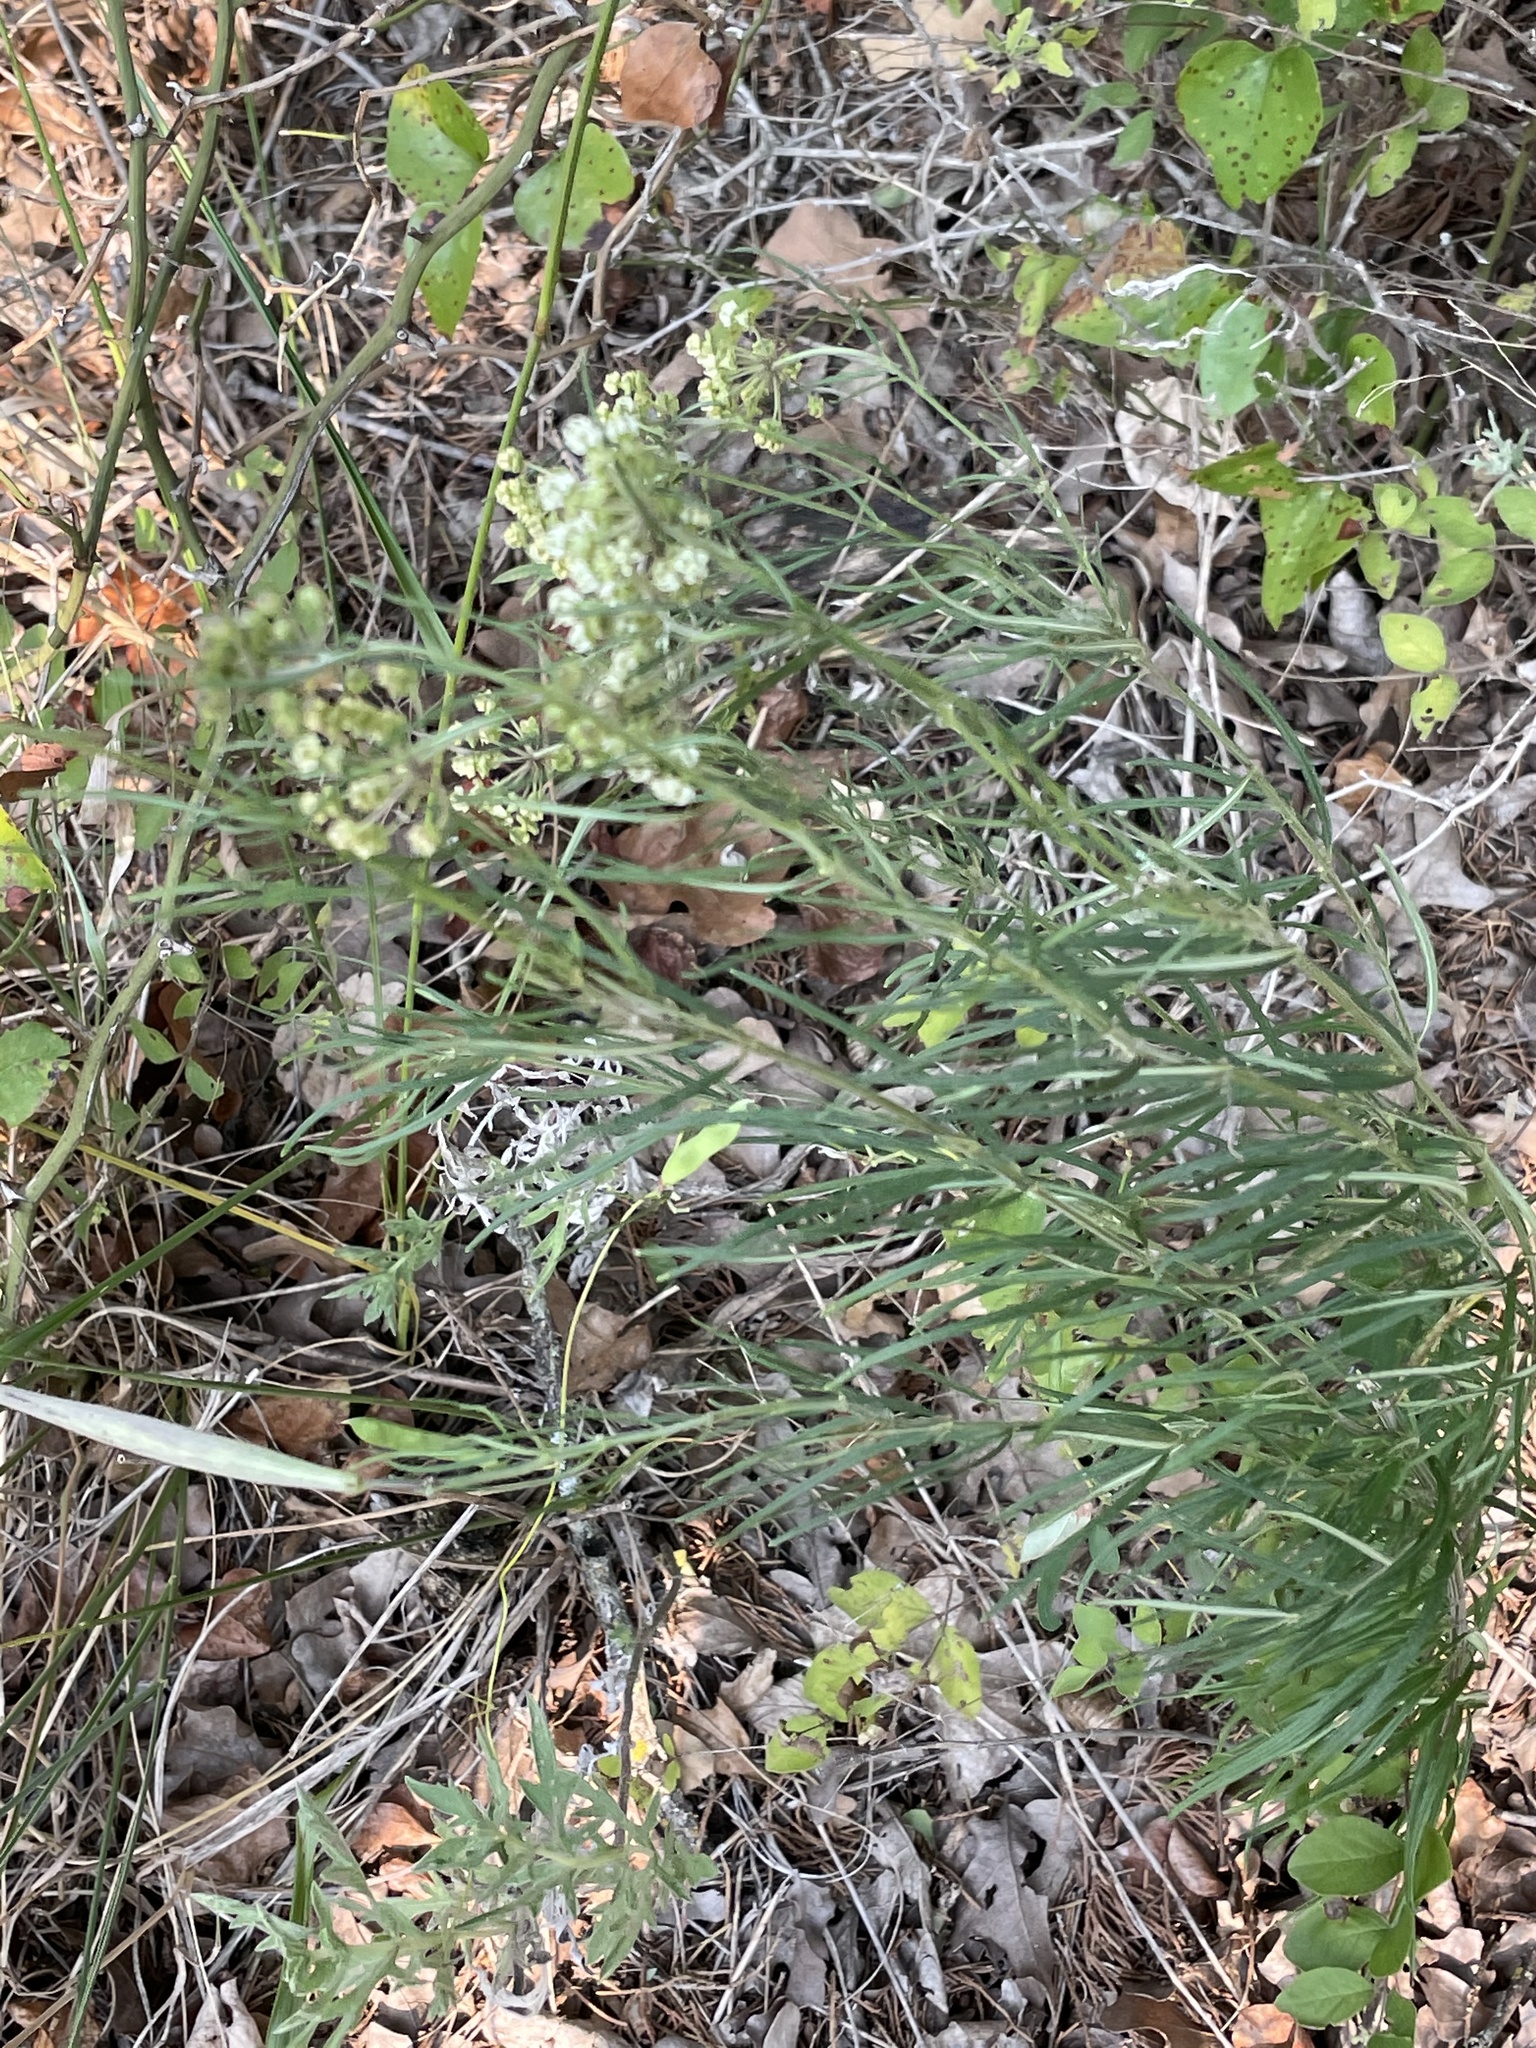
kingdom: Plantae
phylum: Tracheophyta
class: Magnoliopsida
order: Gentianales
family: Apocynaceae
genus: Asclepias
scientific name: Asclepias verticillata
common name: Eastern whorled milkweed
